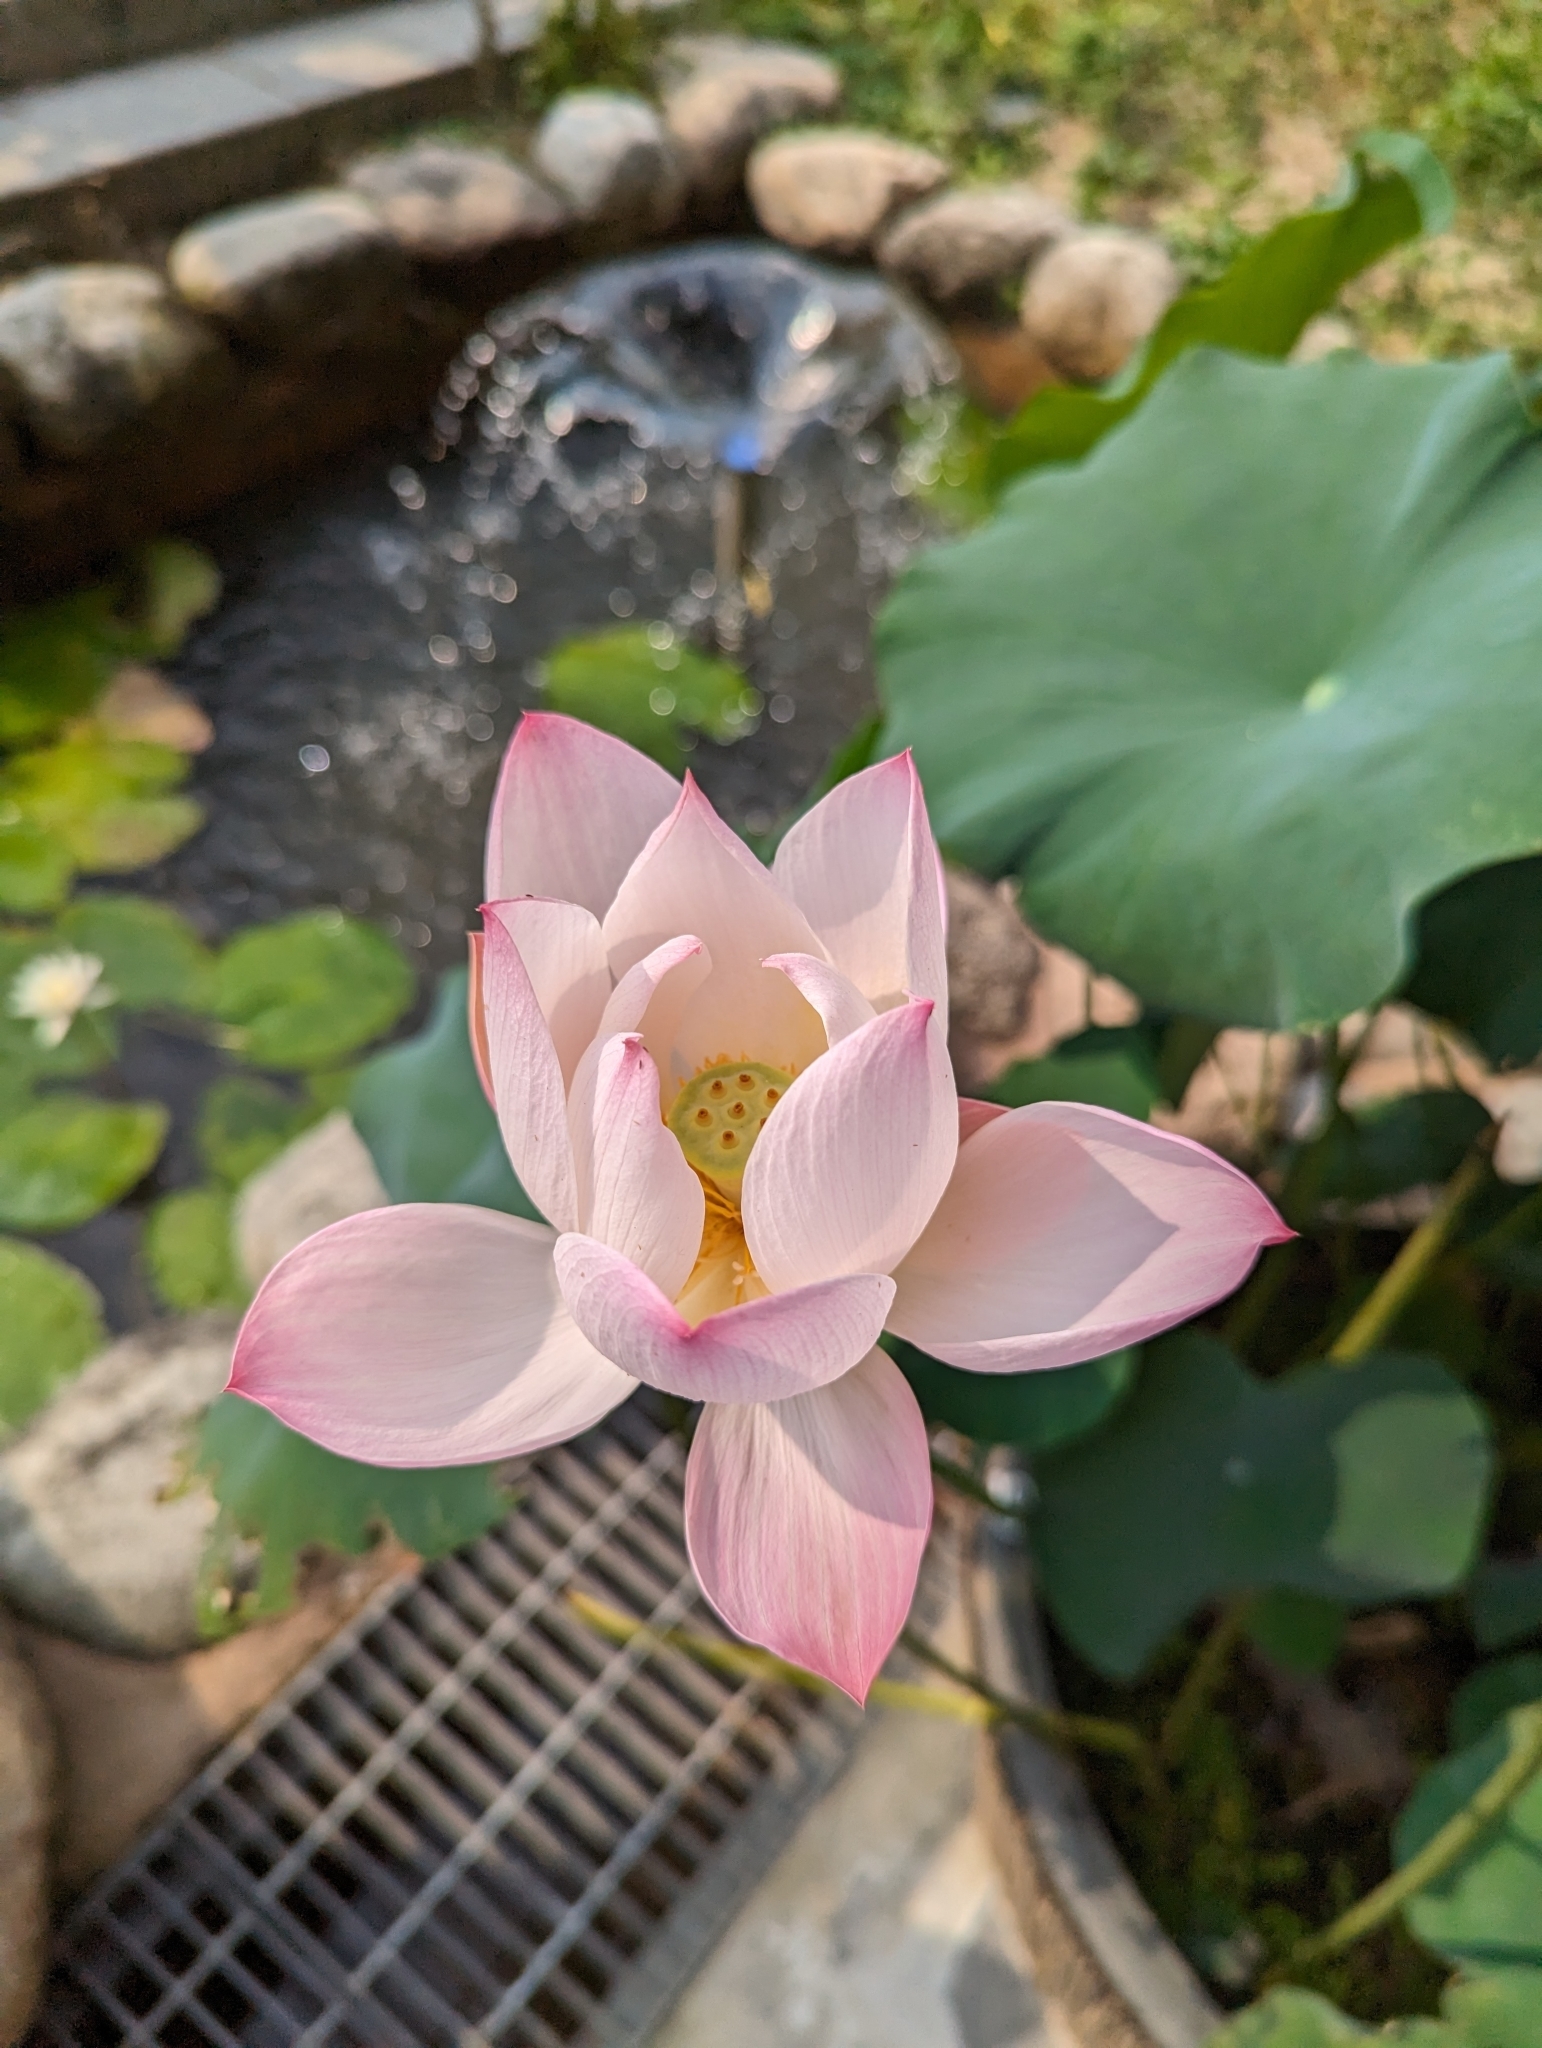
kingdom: Plantae
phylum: Tracheophyta
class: Magnoliopsida
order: Proteales
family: Nelumbonaceae
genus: Nelumbo
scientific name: Nelumbo nucifera
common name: Sacred lotus
